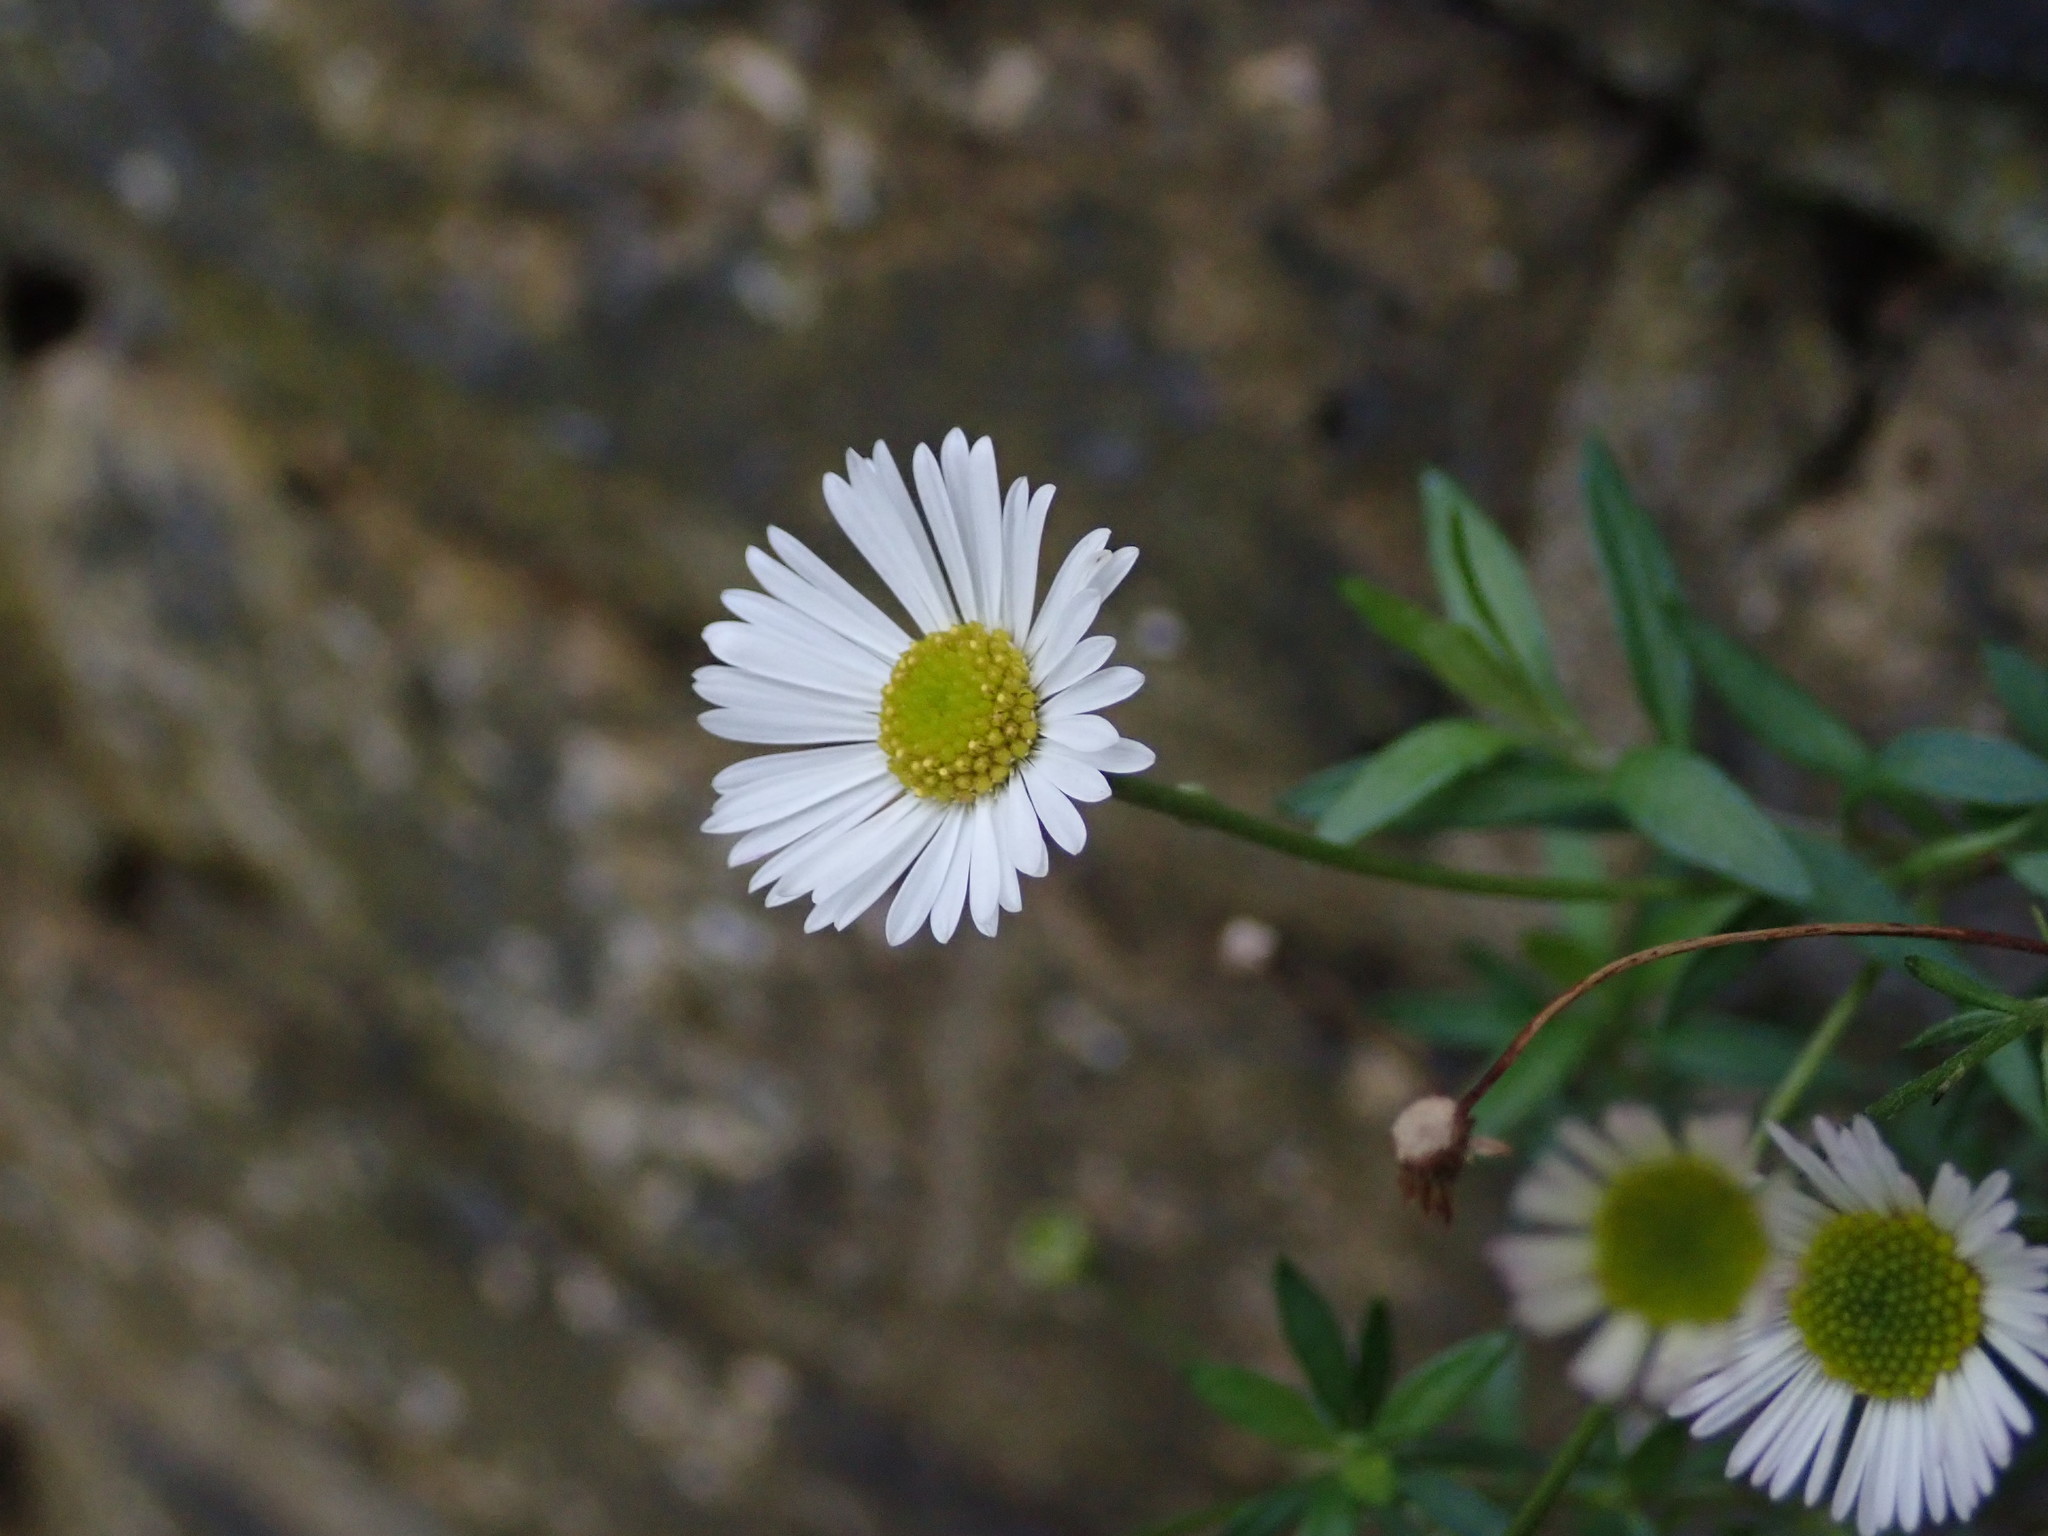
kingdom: Plantae
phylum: Tracheophyta
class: Magnoliopsida
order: Asterales
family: Asteraceae
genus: Erigeron
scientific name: Erigeron karvinskianus
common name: Mexican fleabane
